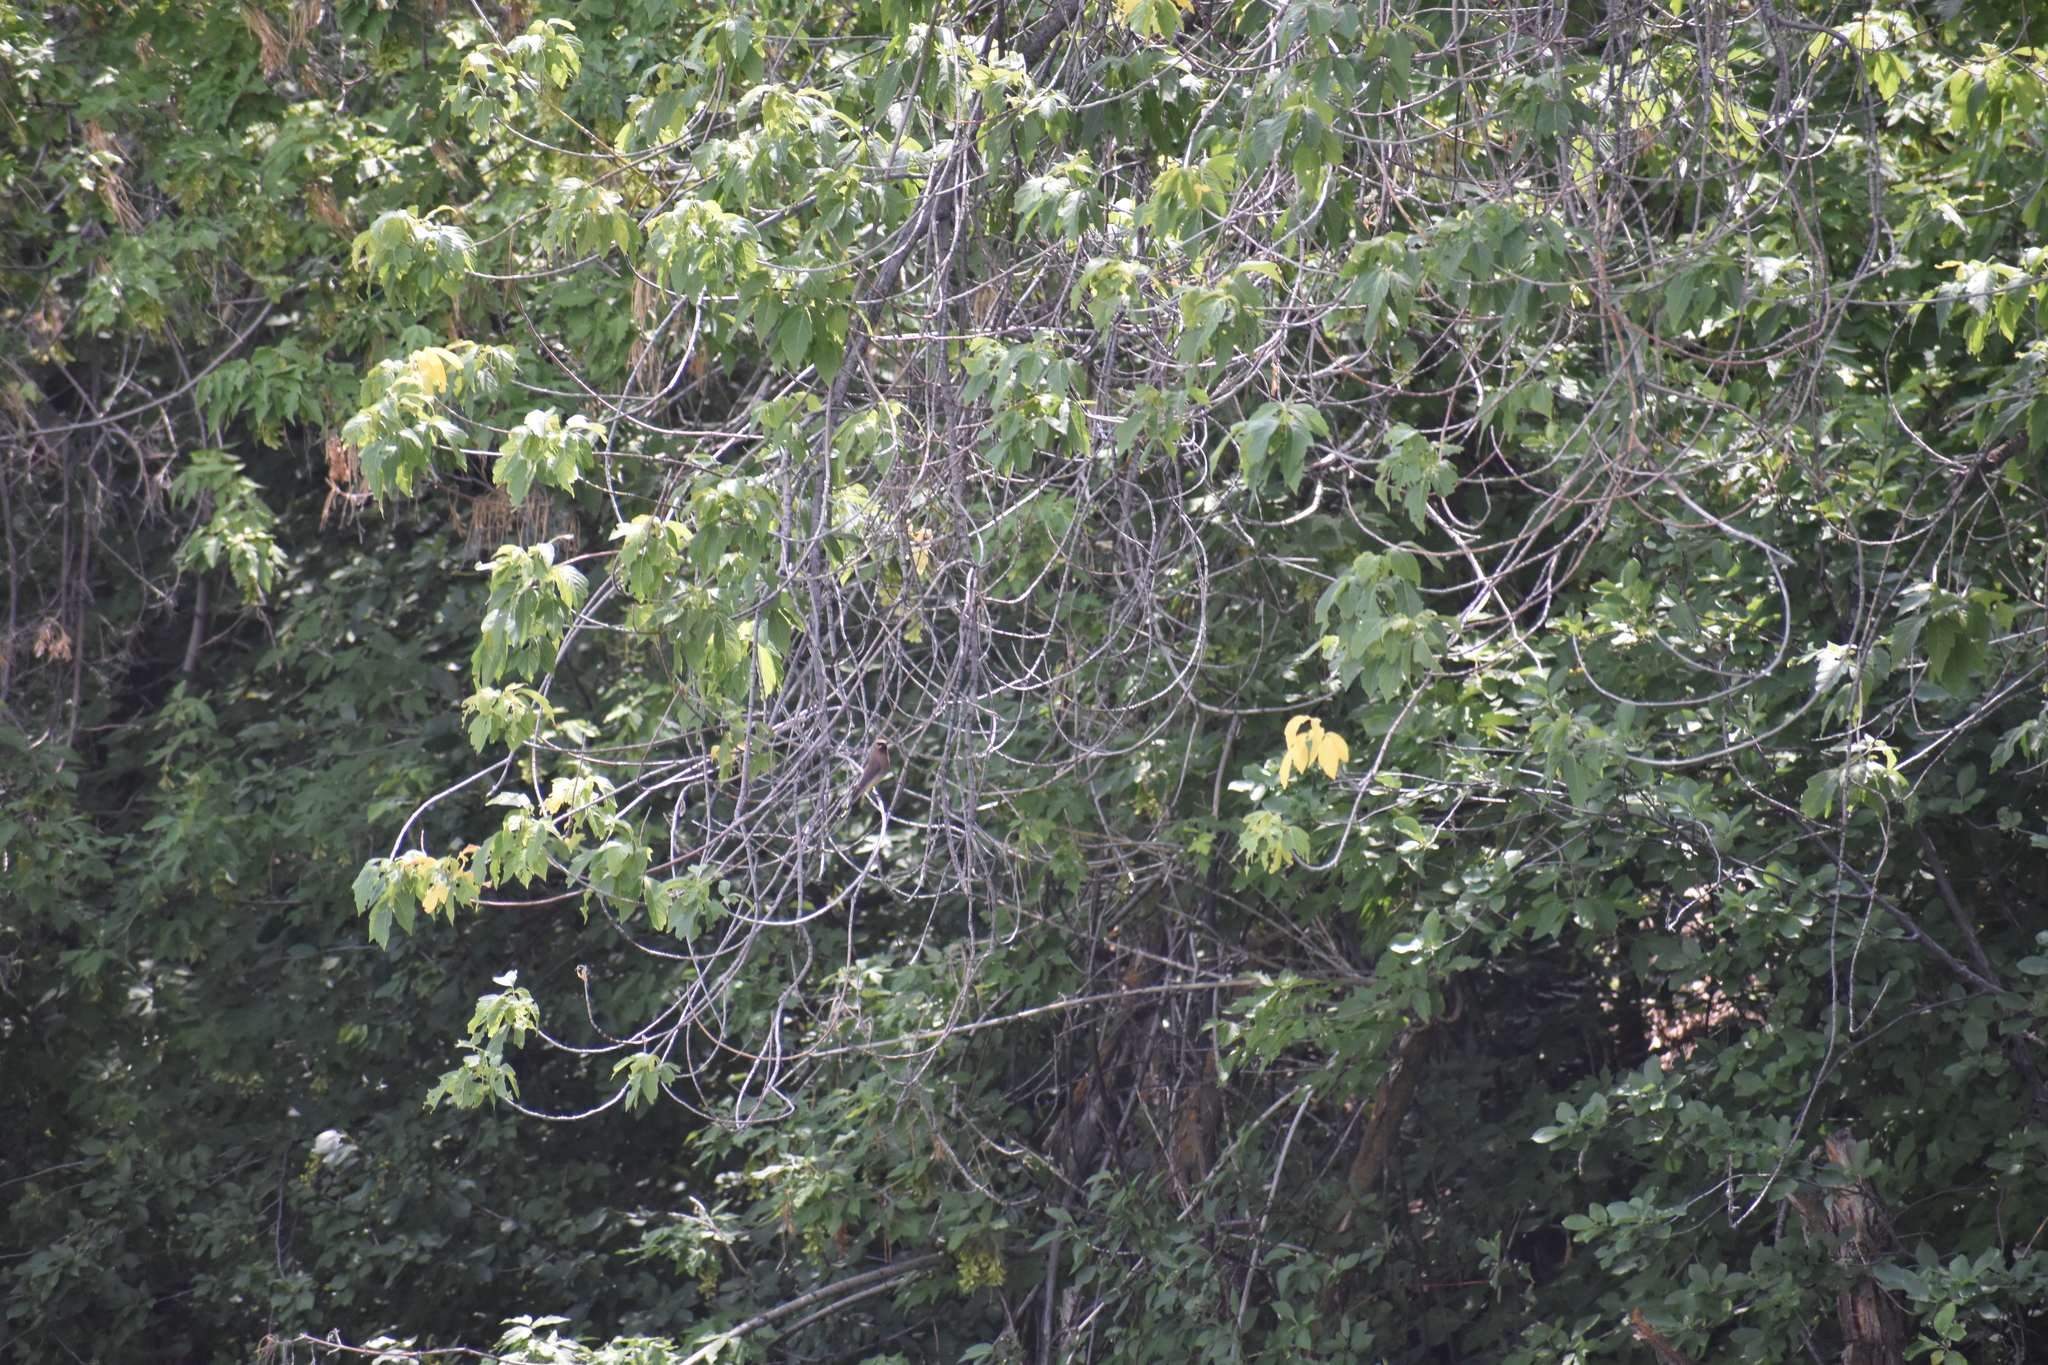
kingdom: Animalia
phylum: Chordata
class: Aves
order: Passeriformes
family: Bombycillidae
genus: Bombycilla
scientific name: Bombycilla cedrorum
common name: Cedar waxwing
